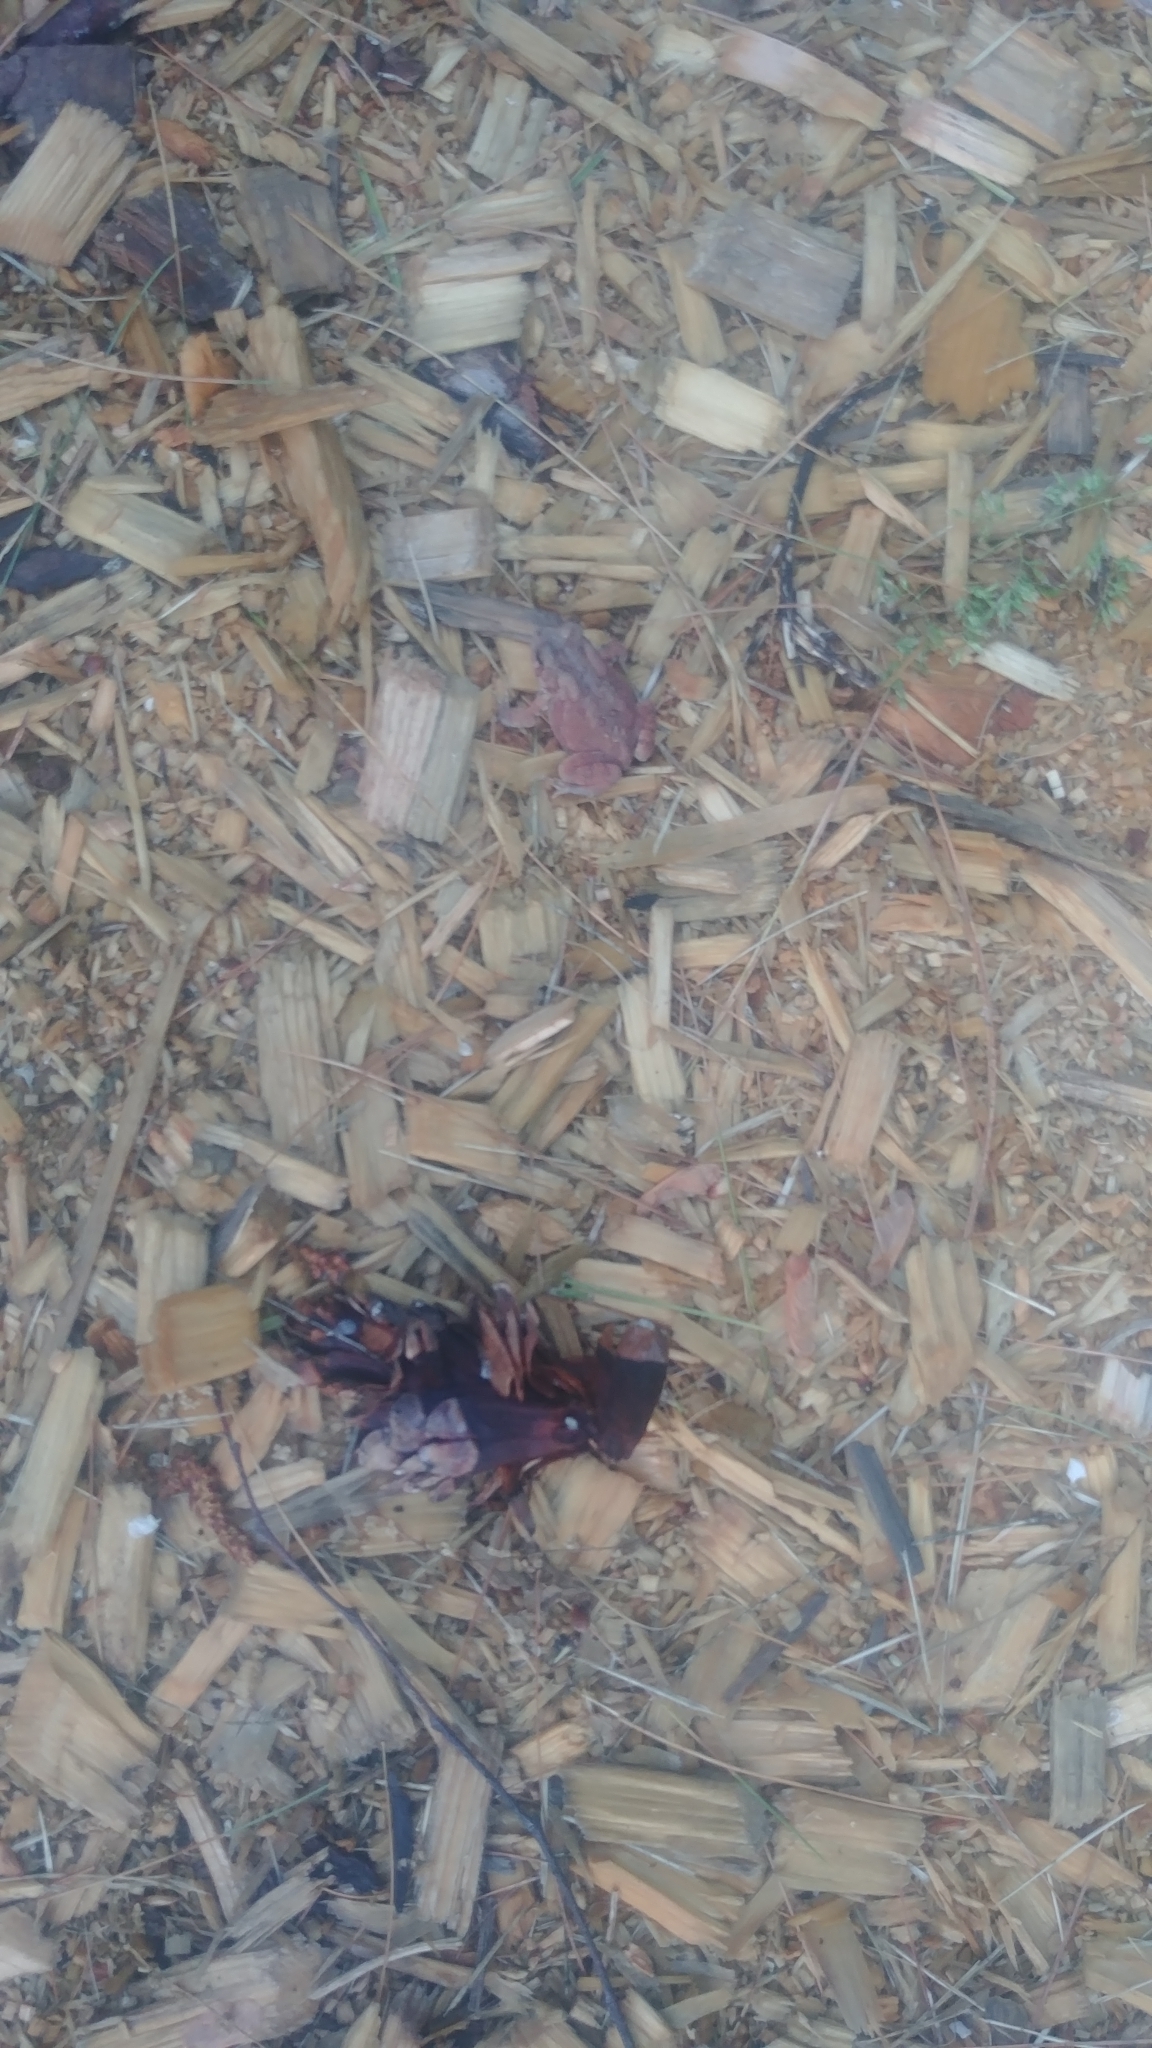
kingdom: Animalia
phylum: Chordata
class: Amphibia
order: Anura
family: Bufonidae
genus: Anaxyrus
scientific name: Anaxyrus americanus
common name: American toad
